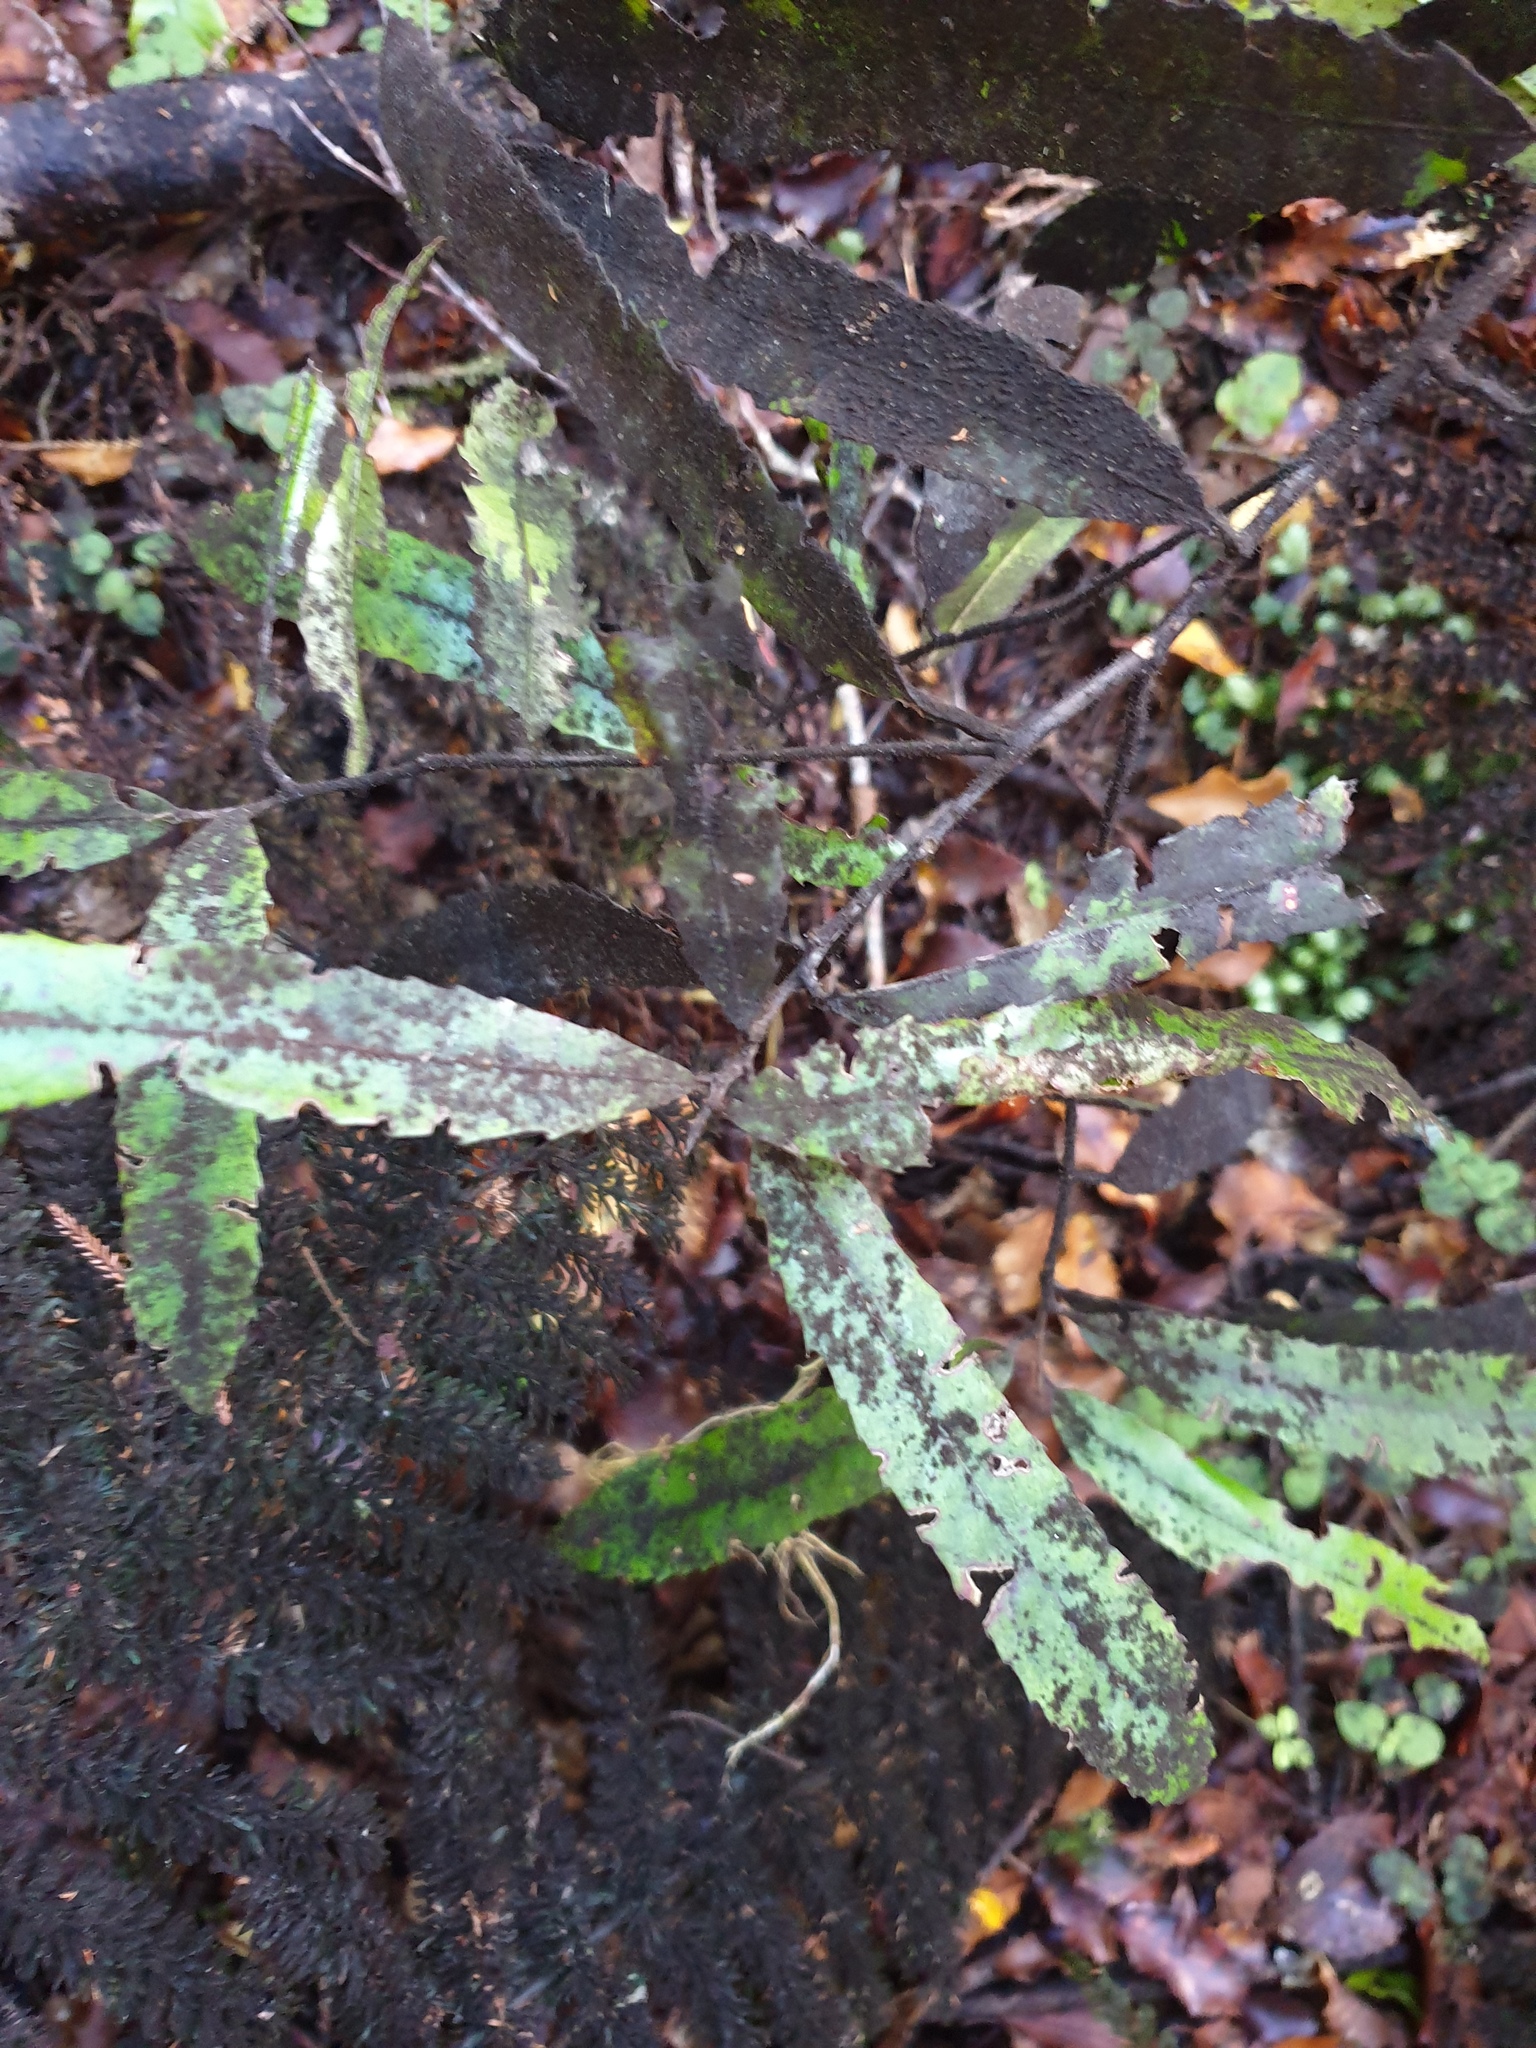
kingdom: Plantae
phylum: Tracheophyta
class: Magnoliopsida
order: Oxalidales
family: Elaeocarpaceae
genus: Elaeocarpus
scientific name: Elaeocarpus dentatus
